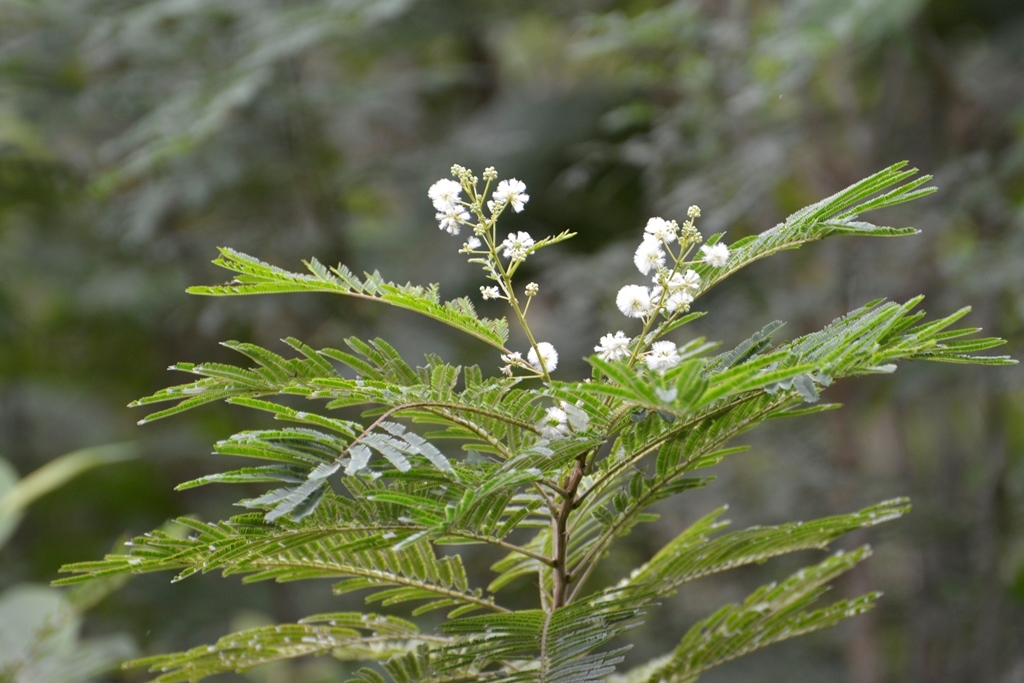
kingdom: Plantae
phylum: Tracheophyta
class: Magnoliopsida
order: Fabales
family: Fabaceae
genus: Acaciella
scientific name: Acaciella angustissima
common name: Prairie acacia
